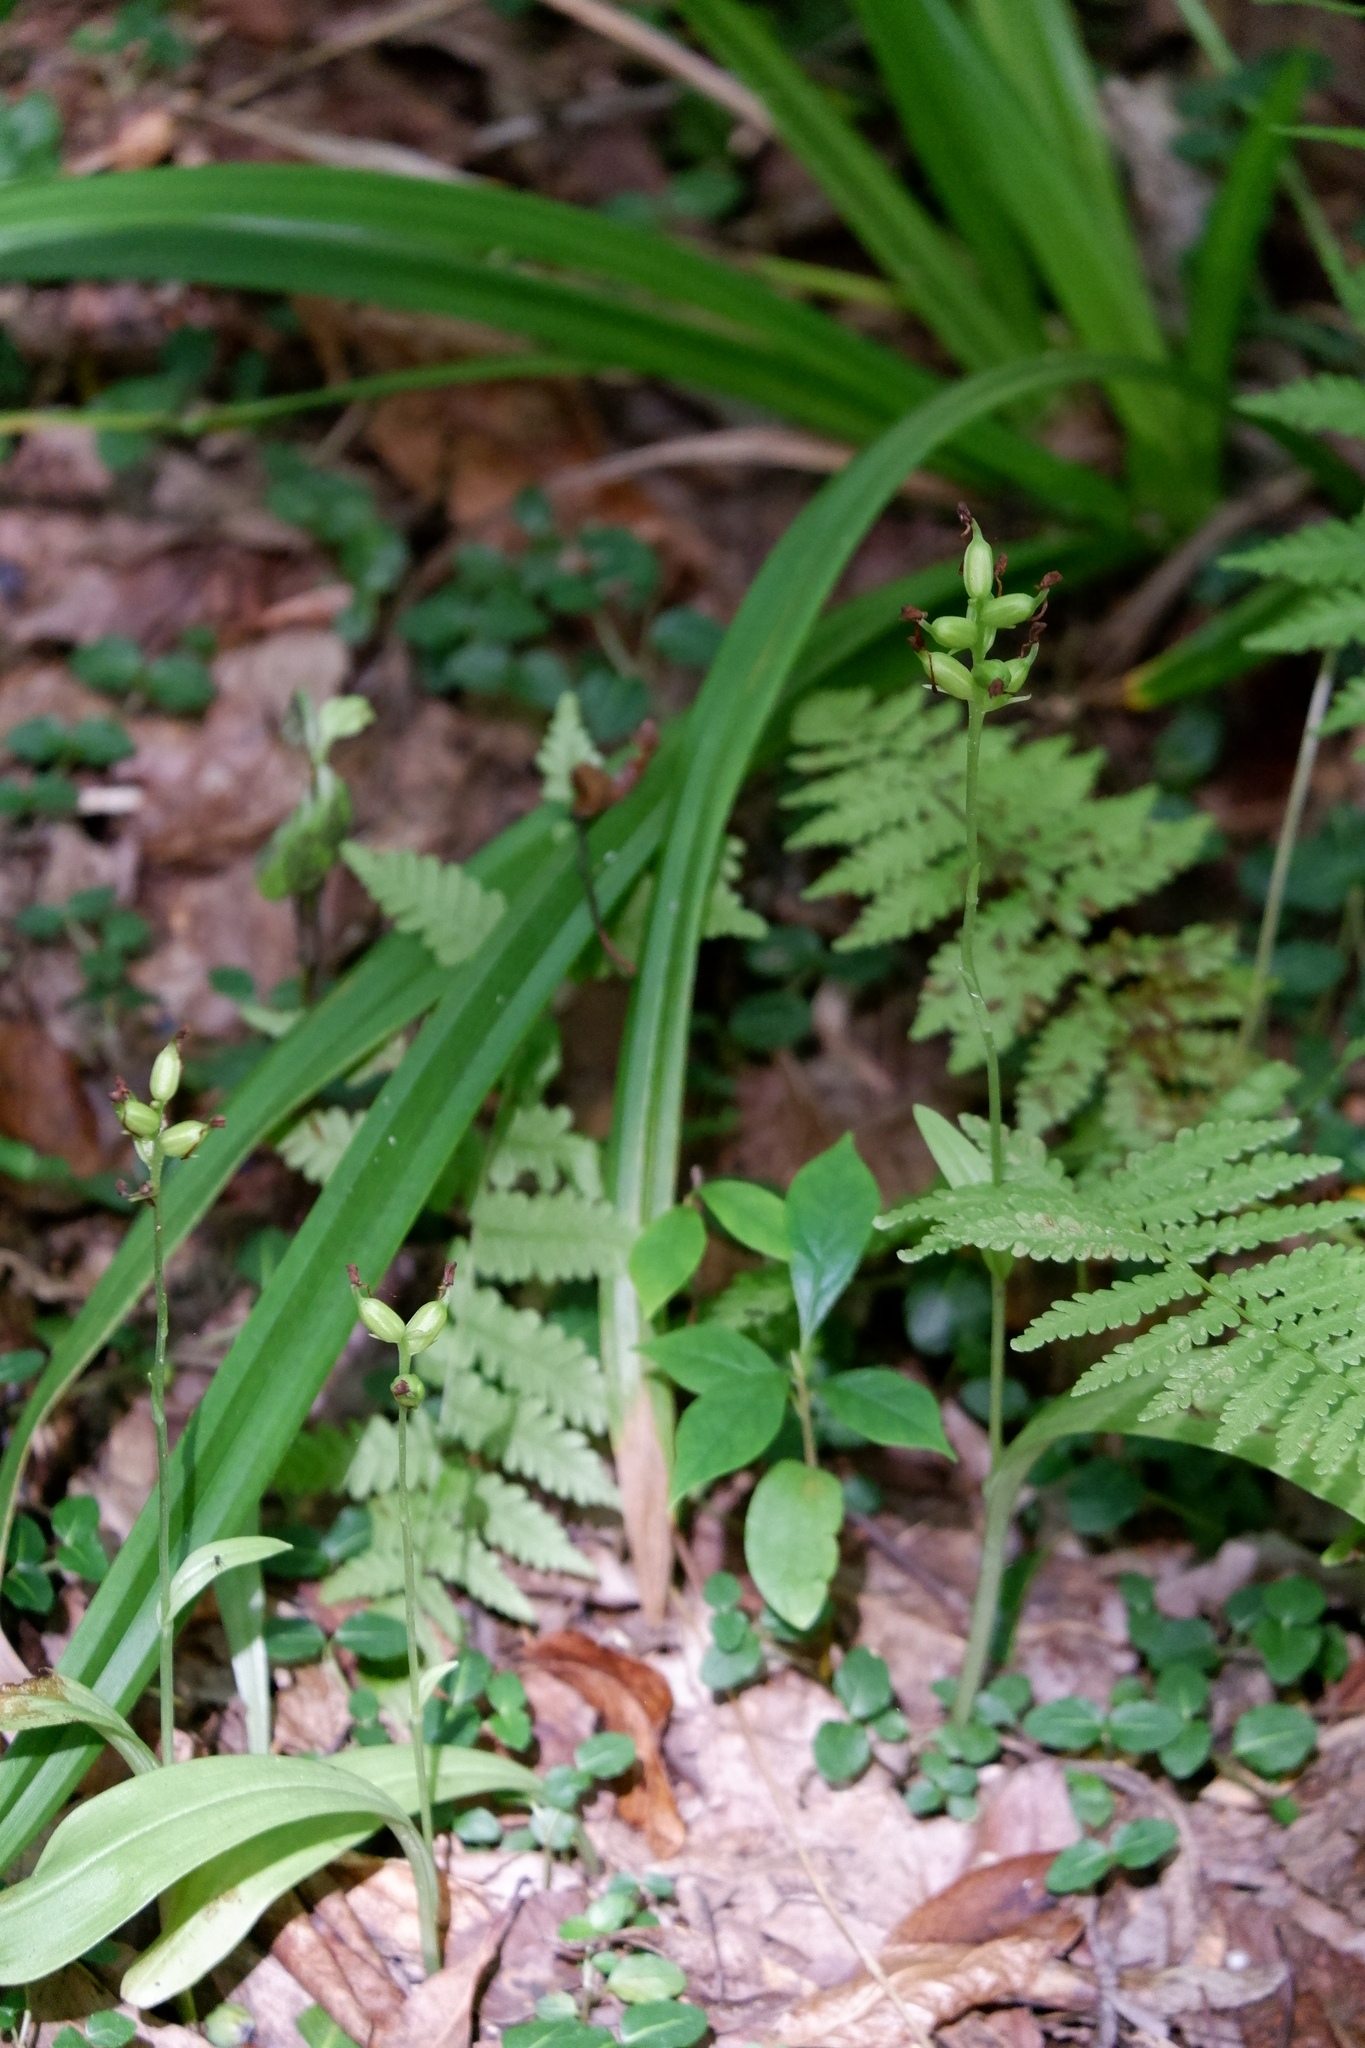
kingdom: Plantae
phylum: Tracheophyta
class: Liliopsida
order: Asparagales
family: Orchidaceae
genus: Platanthera
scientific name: Platanthera clavellata
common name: Club-spur orchid
